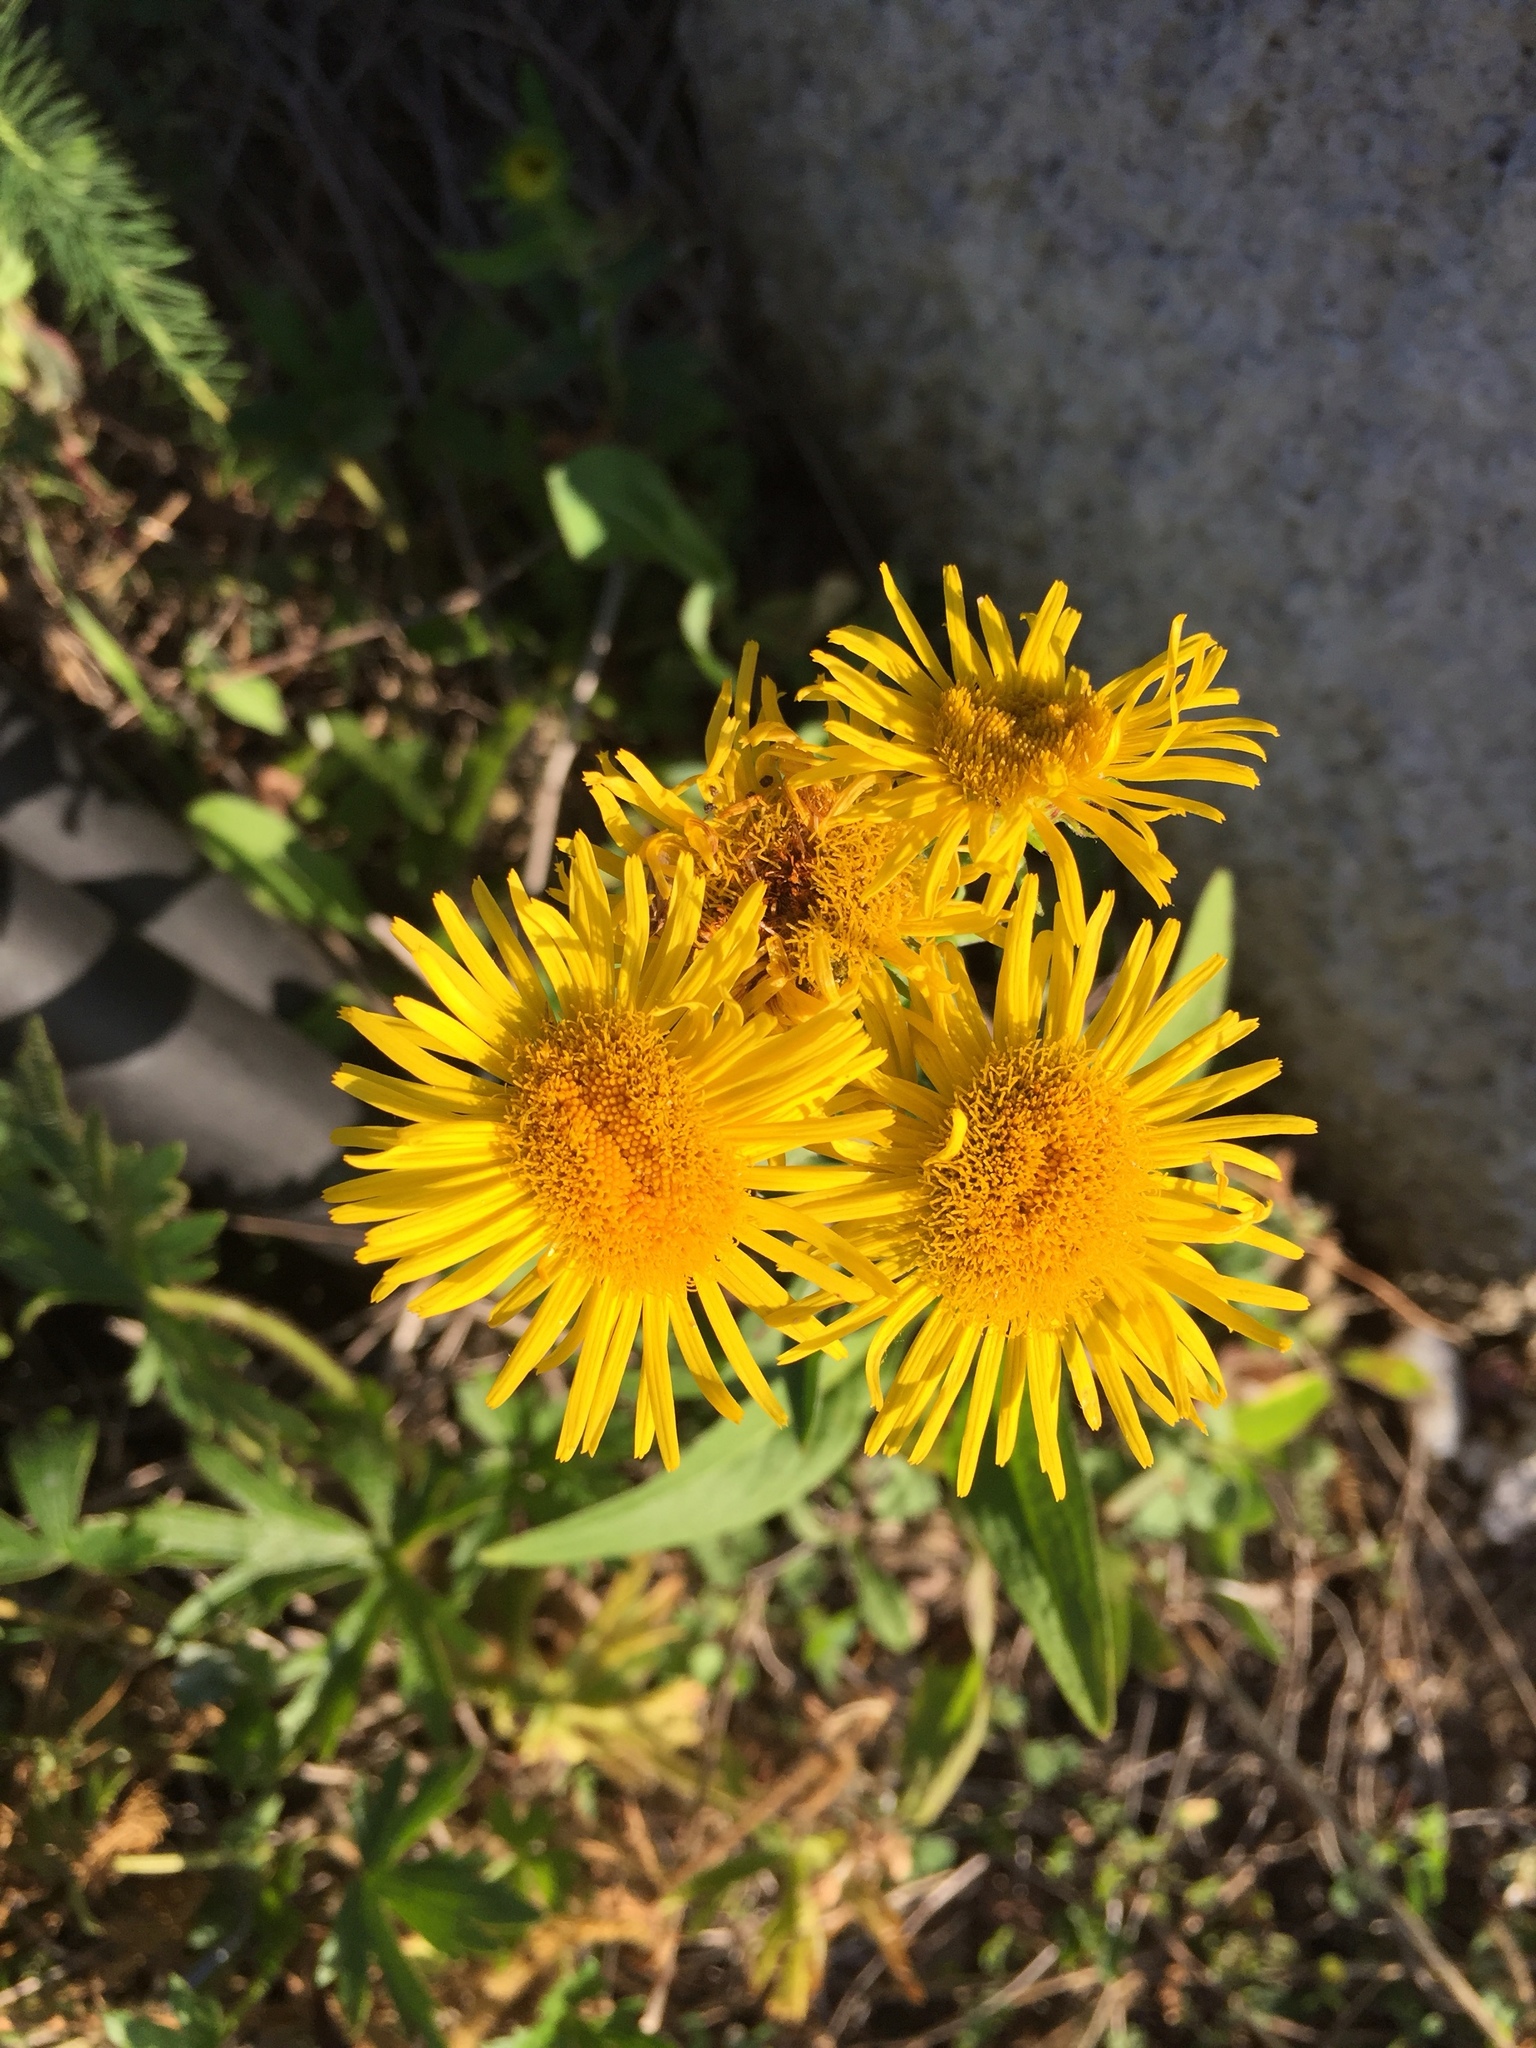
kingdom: Plantae
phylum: Tracheophyta
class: Magnoliopsida
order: Asterales
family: Asteraceae
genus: Pentanema
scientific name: Pentanema britannicum
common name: British elecampane
